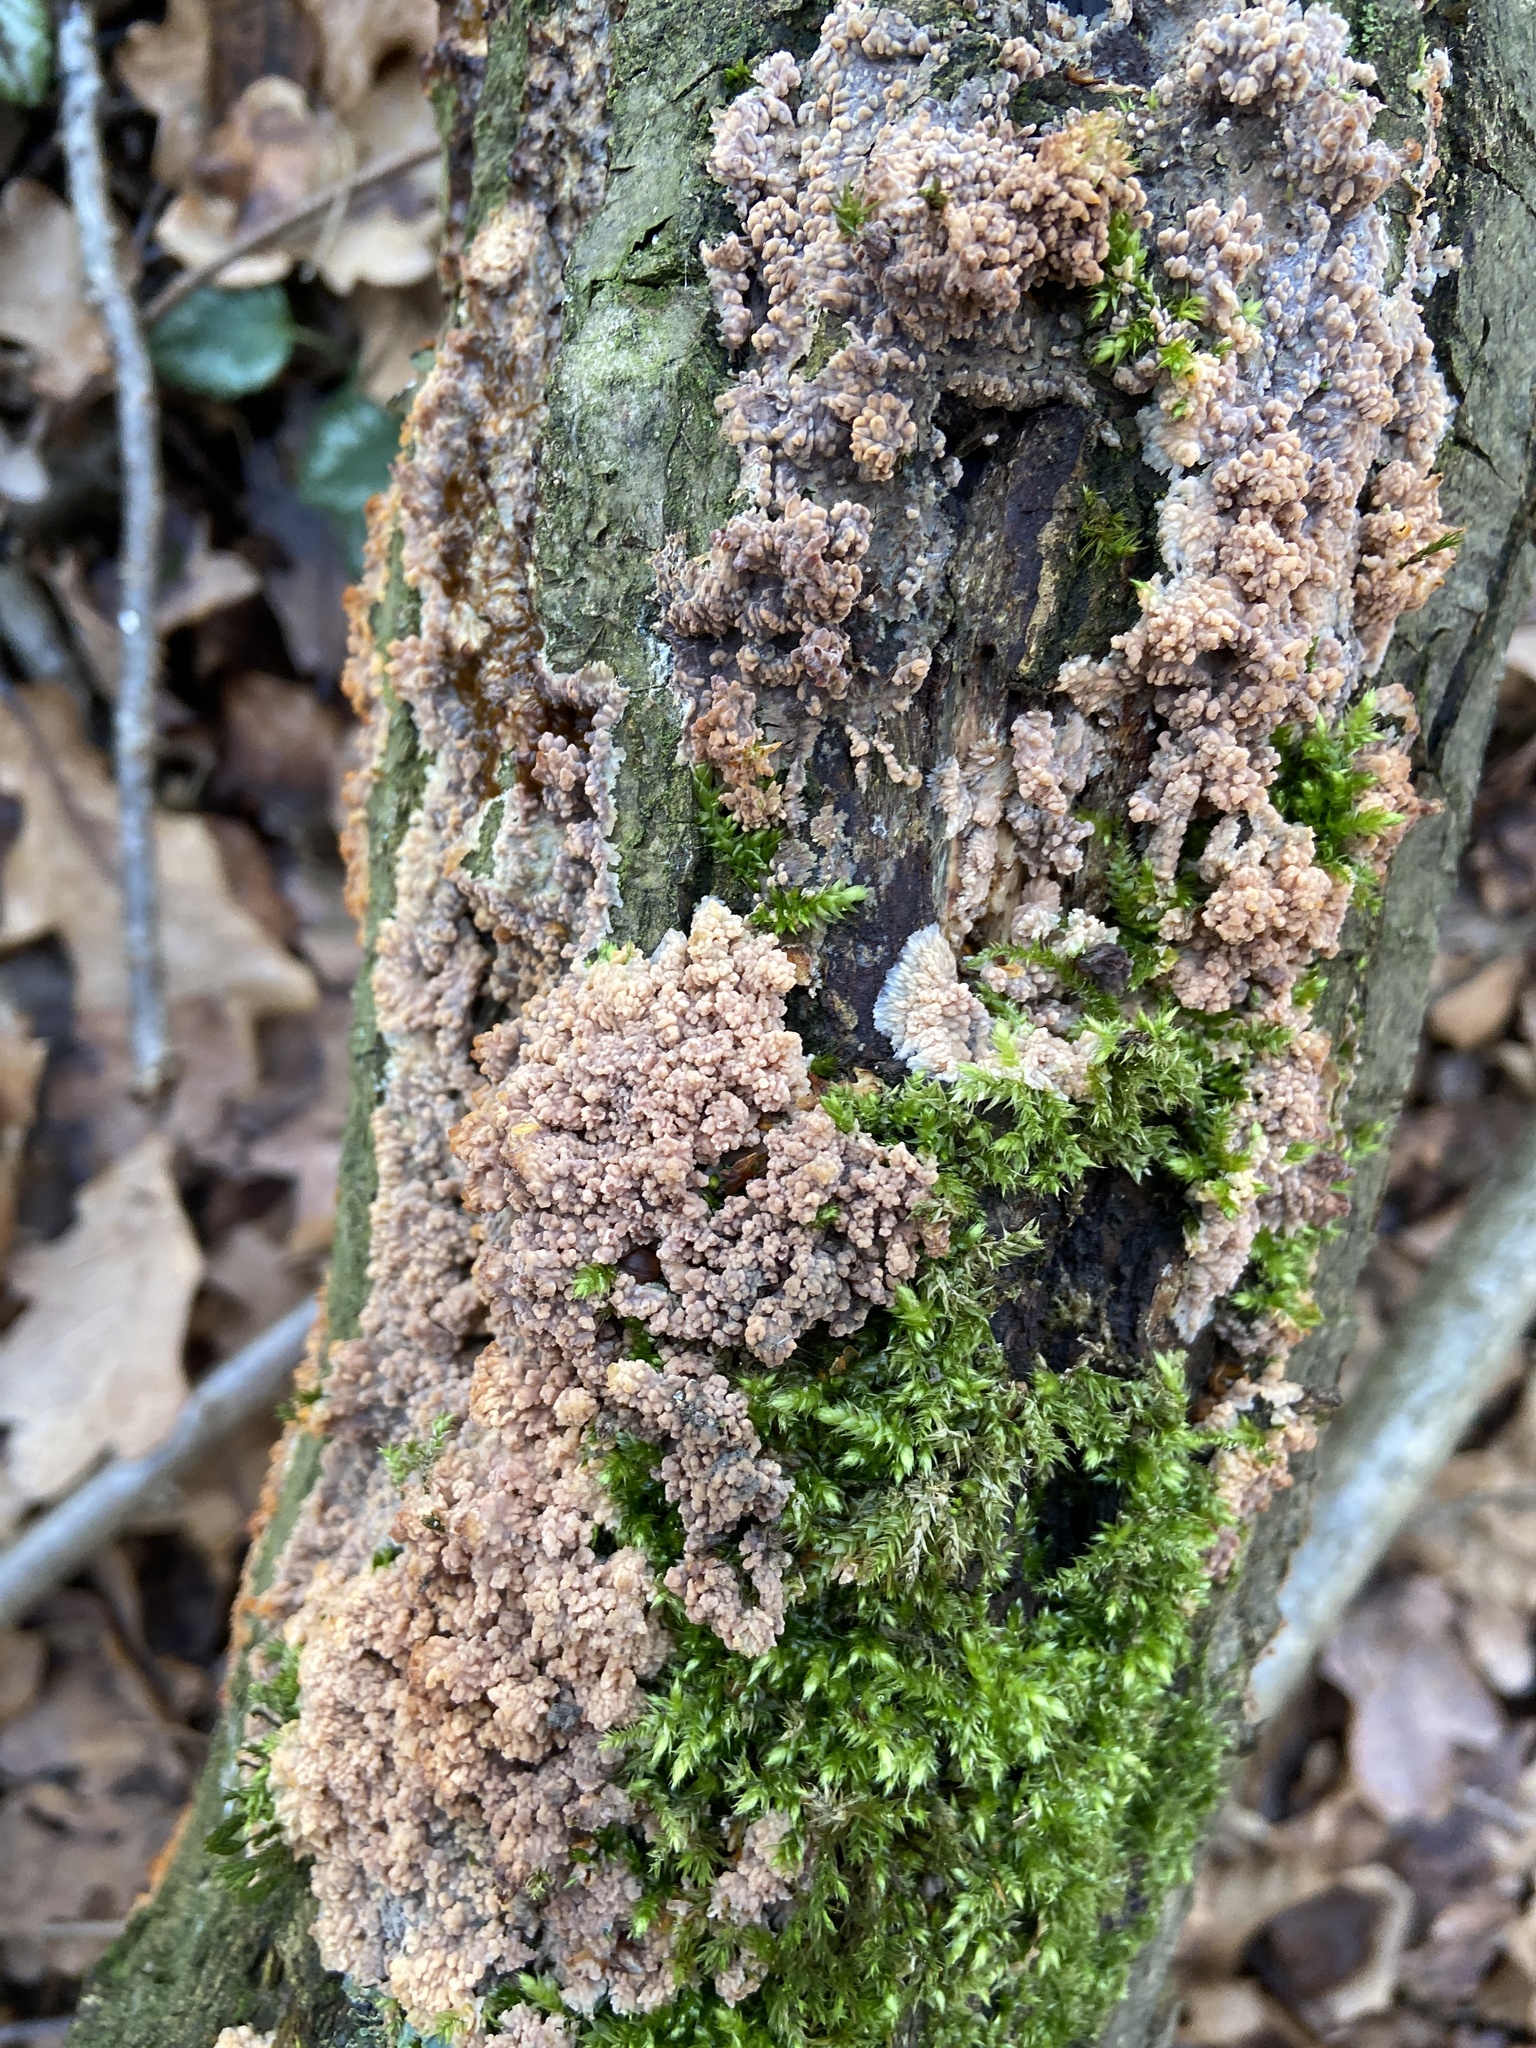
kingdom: Fungi
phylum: Basidiomycota
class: Agaricomycetes
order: Polyporales
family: Meruliaceae
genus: Phlebia
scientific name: Phlebia radiata
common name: Wrinkled crust
